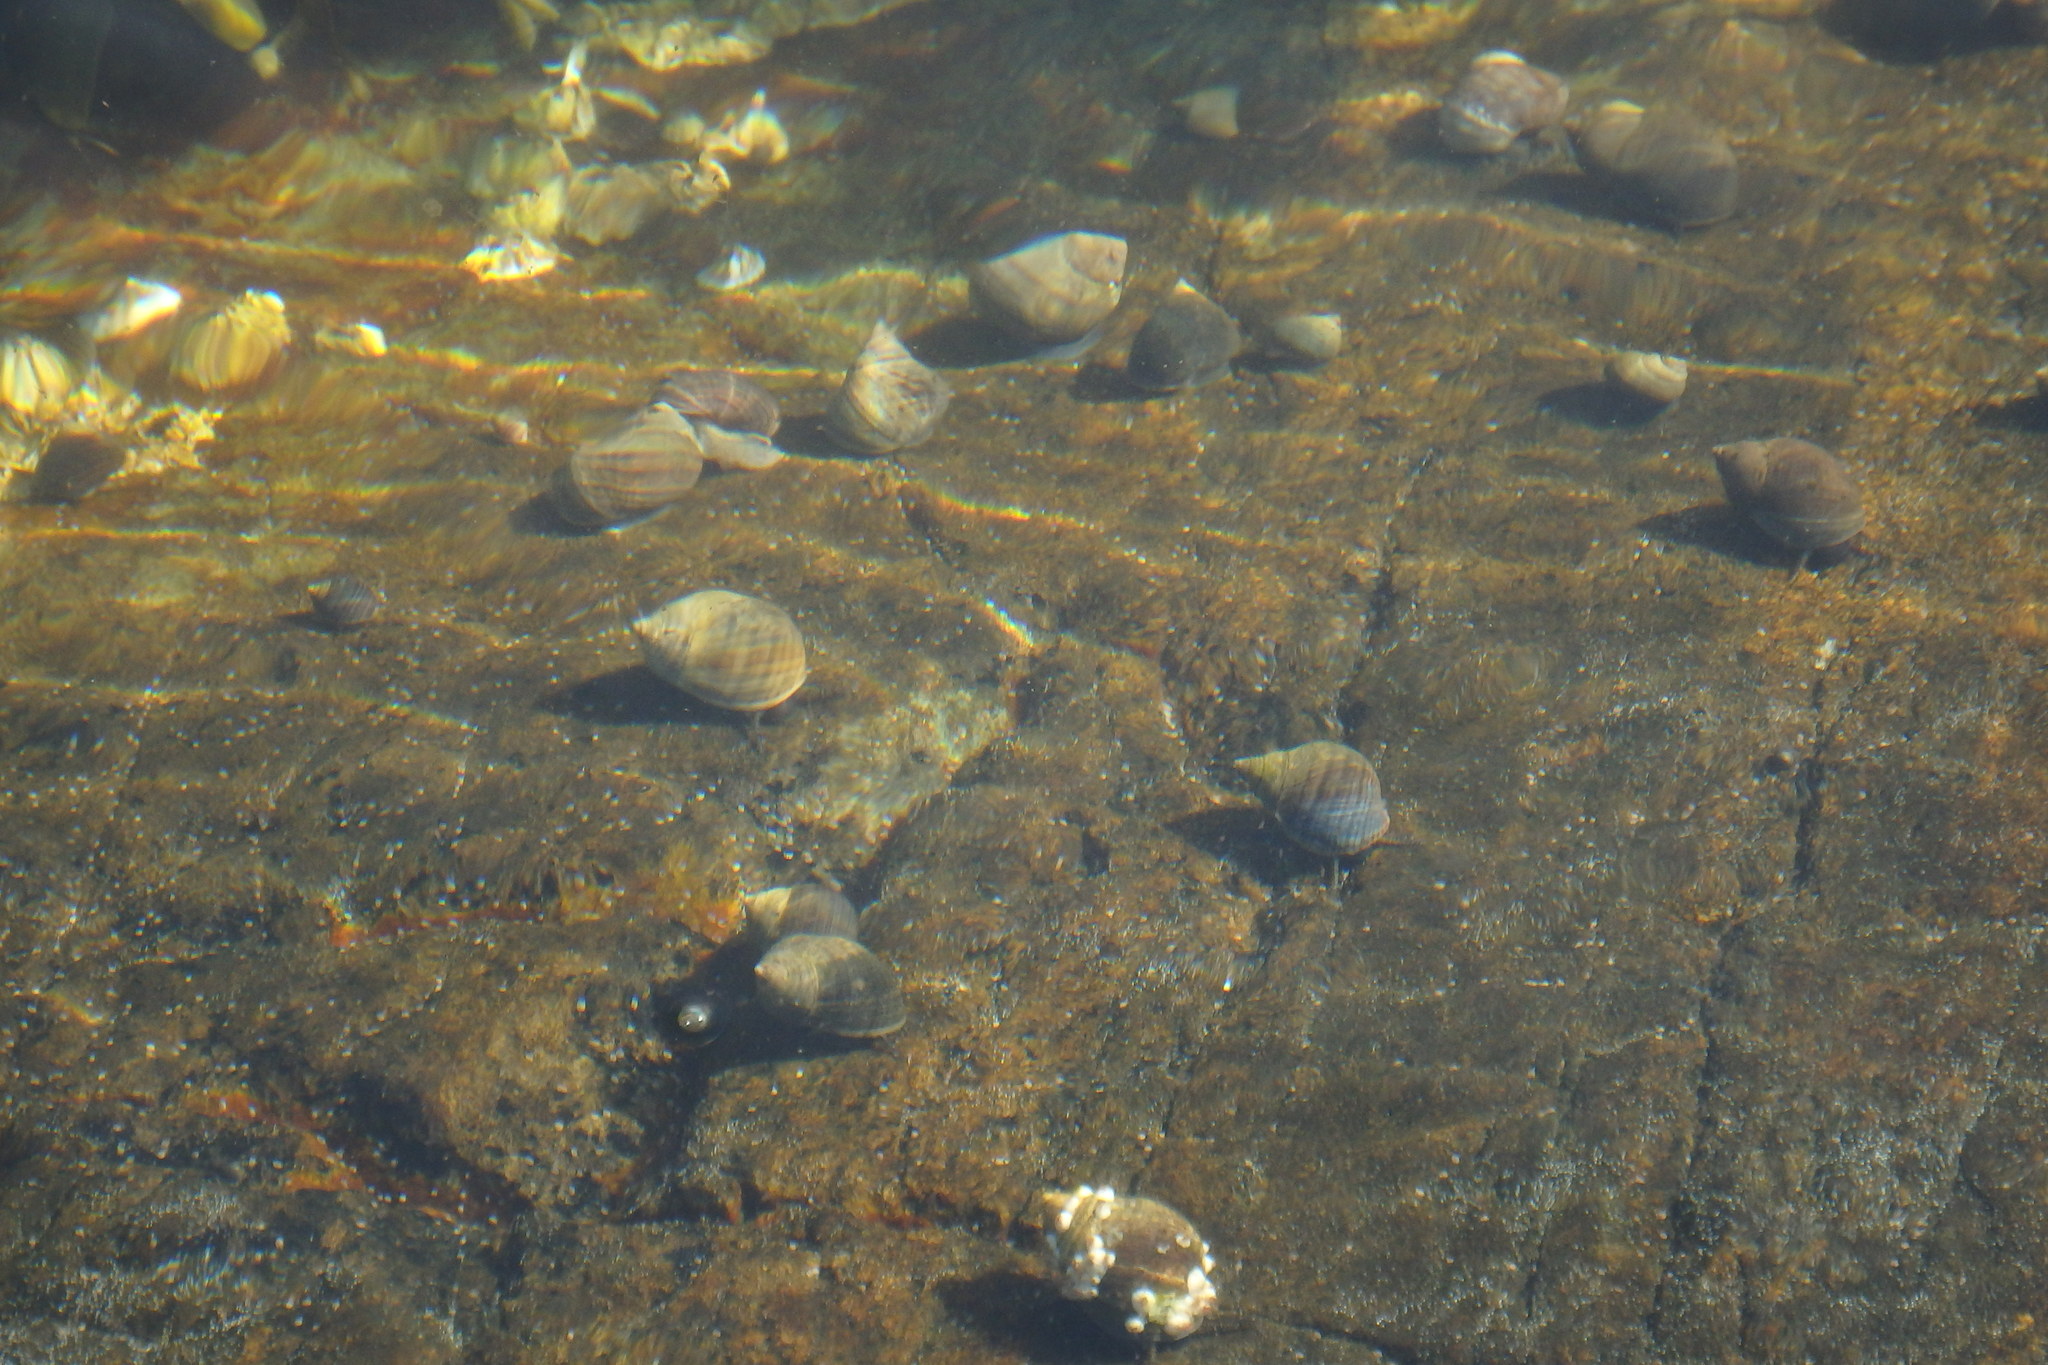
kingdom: Animalia
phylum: Mollusca
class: Gastropoda
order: Littorinimorpha
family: Littorinidae
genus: Littorina
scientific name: Littorina littorea
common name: Common periwinkle
